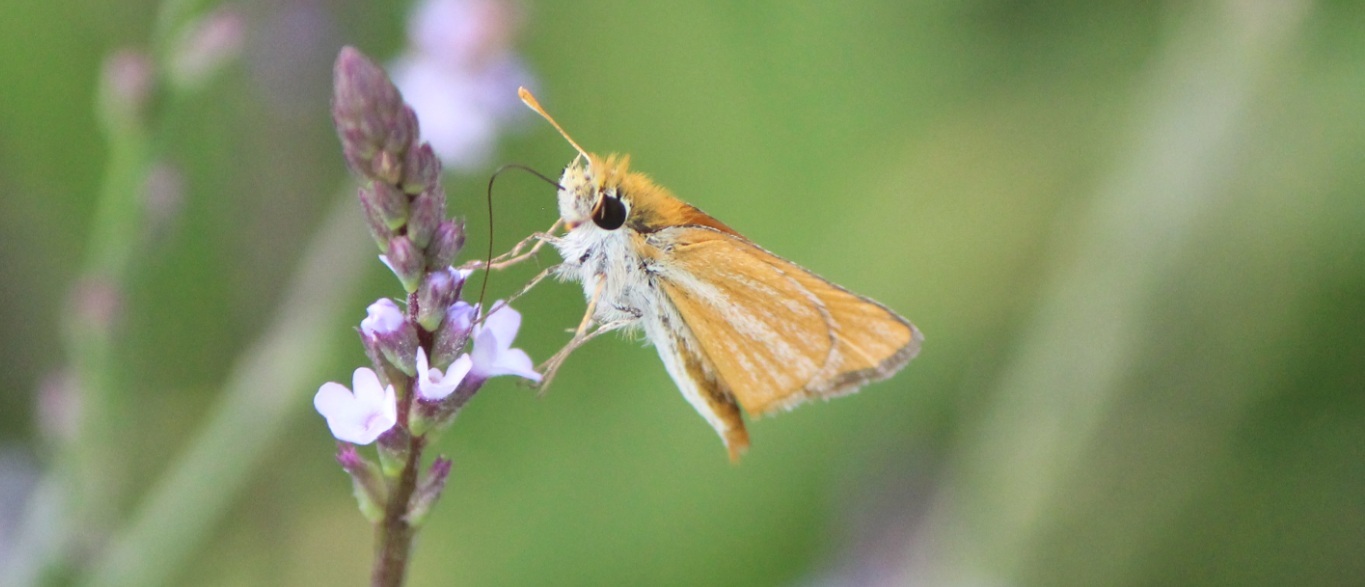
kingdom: Animalia
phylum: Arthropoda
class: Insecta
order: Lepidoptera
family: Hesperiidae
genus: Copaeodes
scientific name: Copaeodes minima
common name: Southern skipperling
